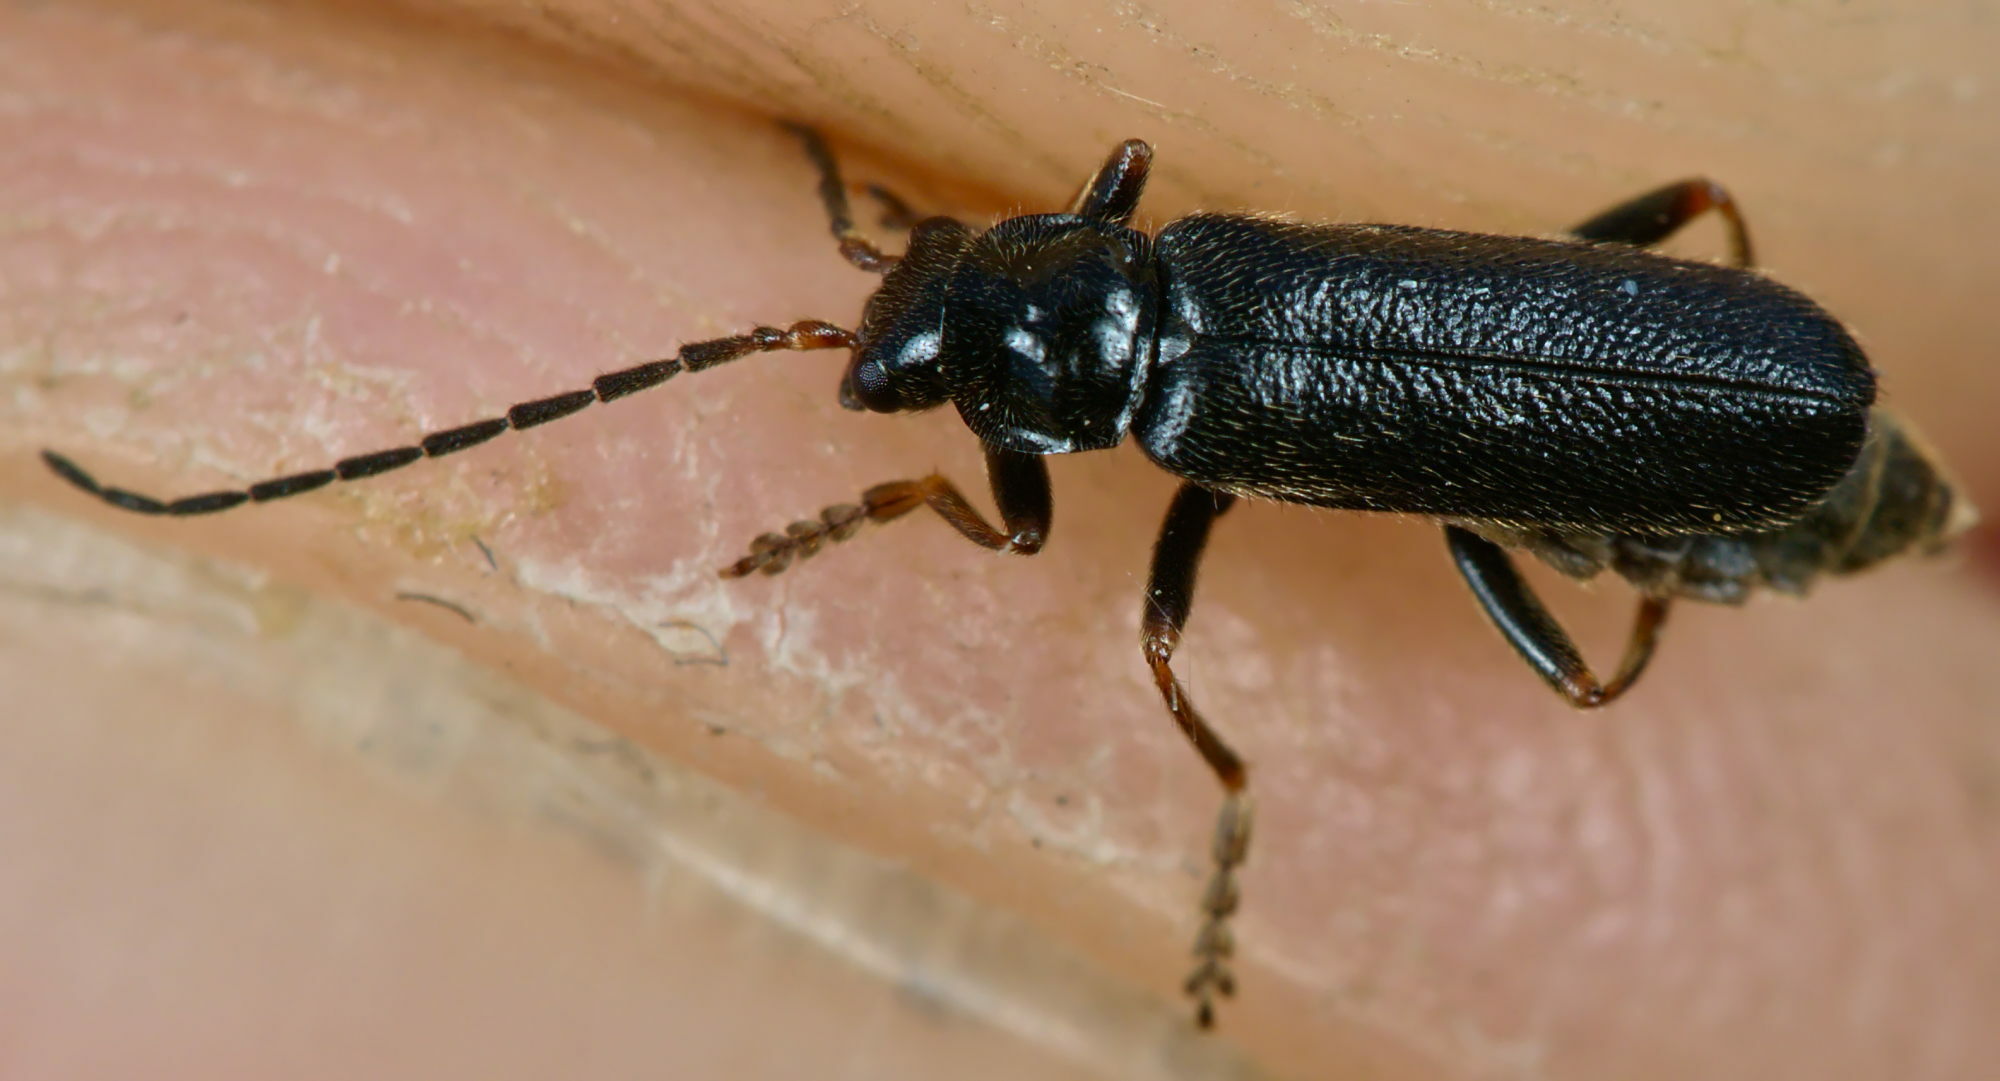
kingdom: Animalia
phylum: Arthropoda
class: Insecta
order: Coleoptera
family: Cantharidae
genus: Cantharis
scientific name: Cantharis flavilabris
